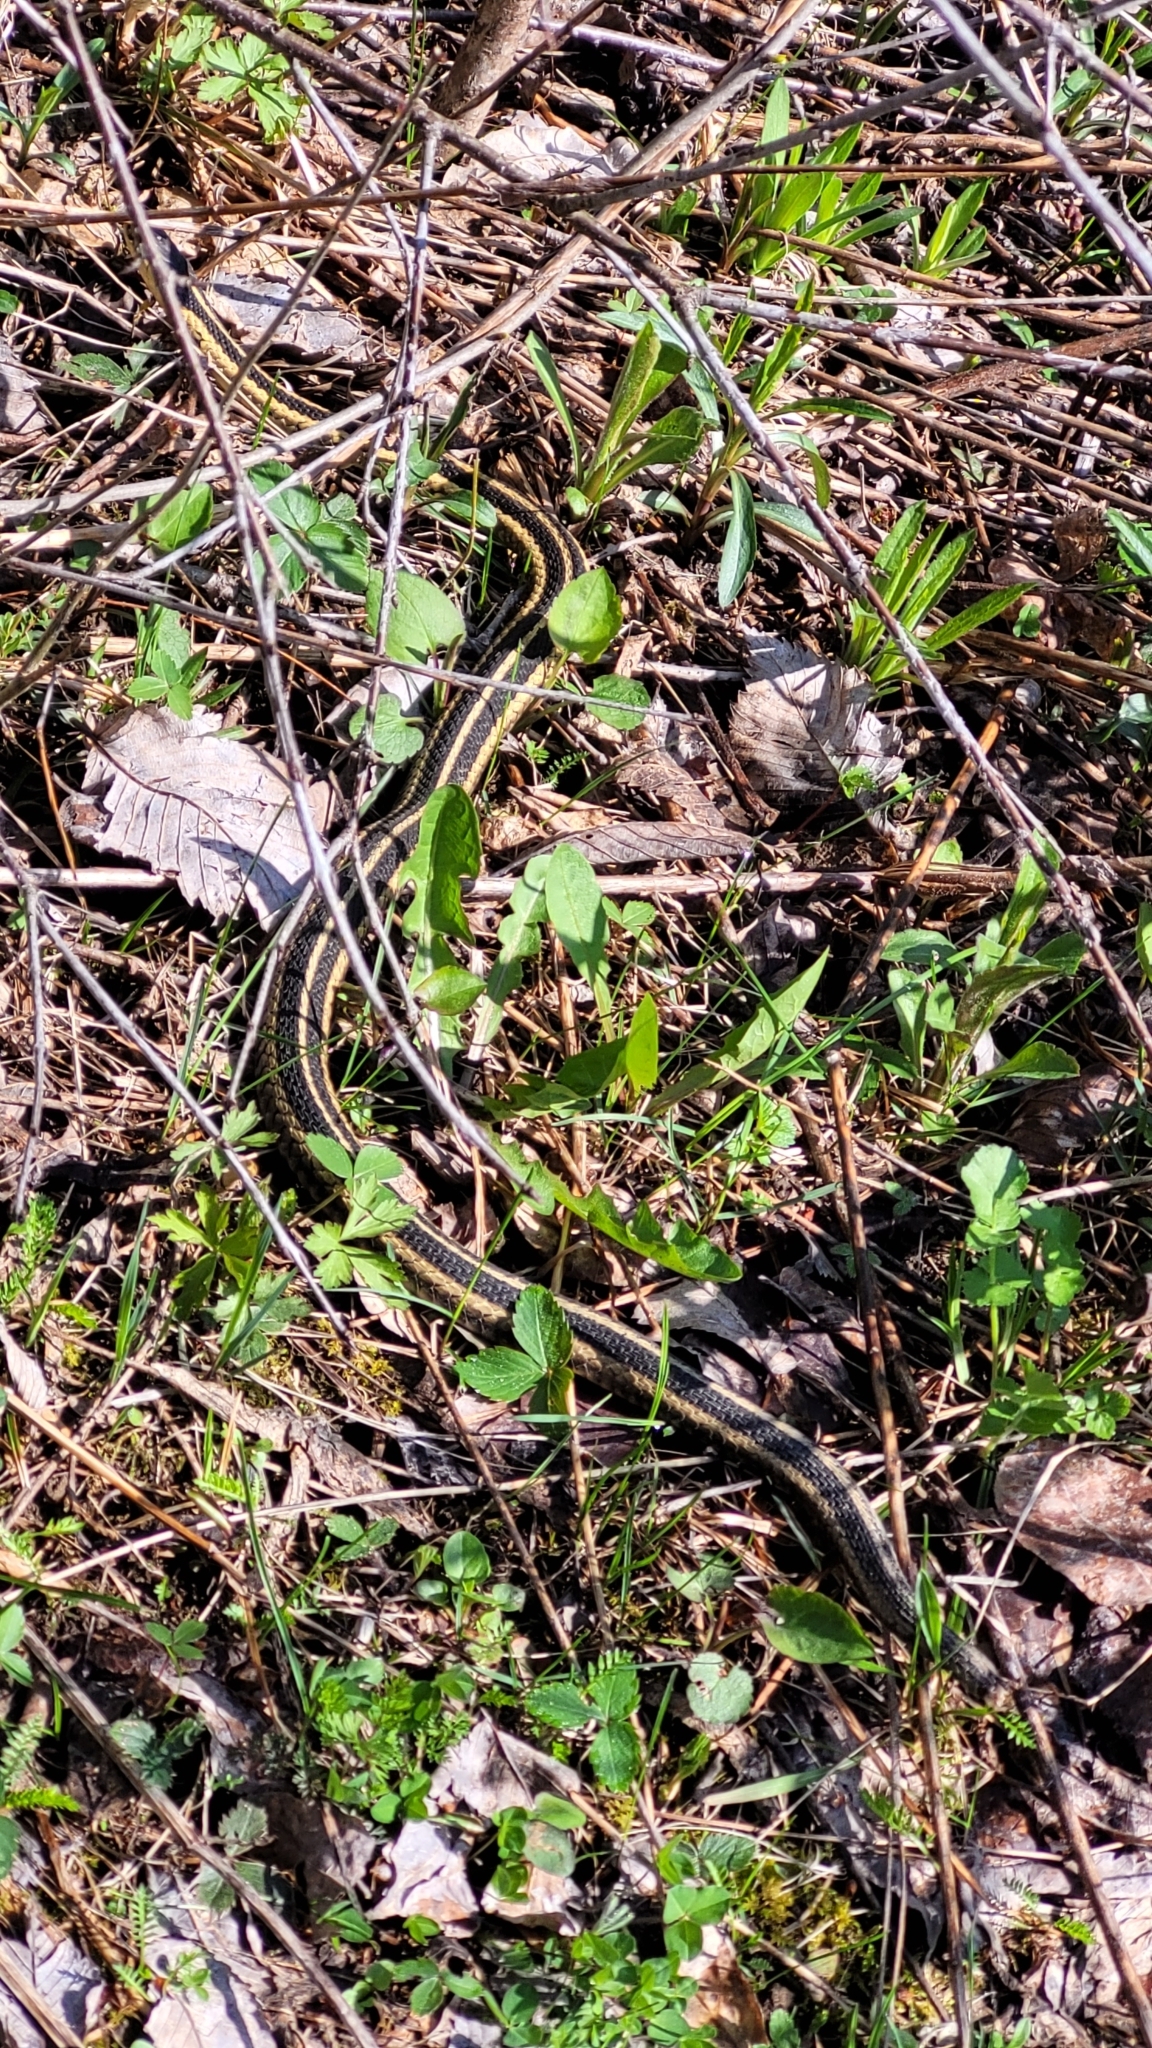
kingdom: Animalia
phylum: Chordata
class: Squamata
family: Colubridae
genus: Thamnophis
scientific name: Thamnophis sirtalis
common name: Common garter snake
